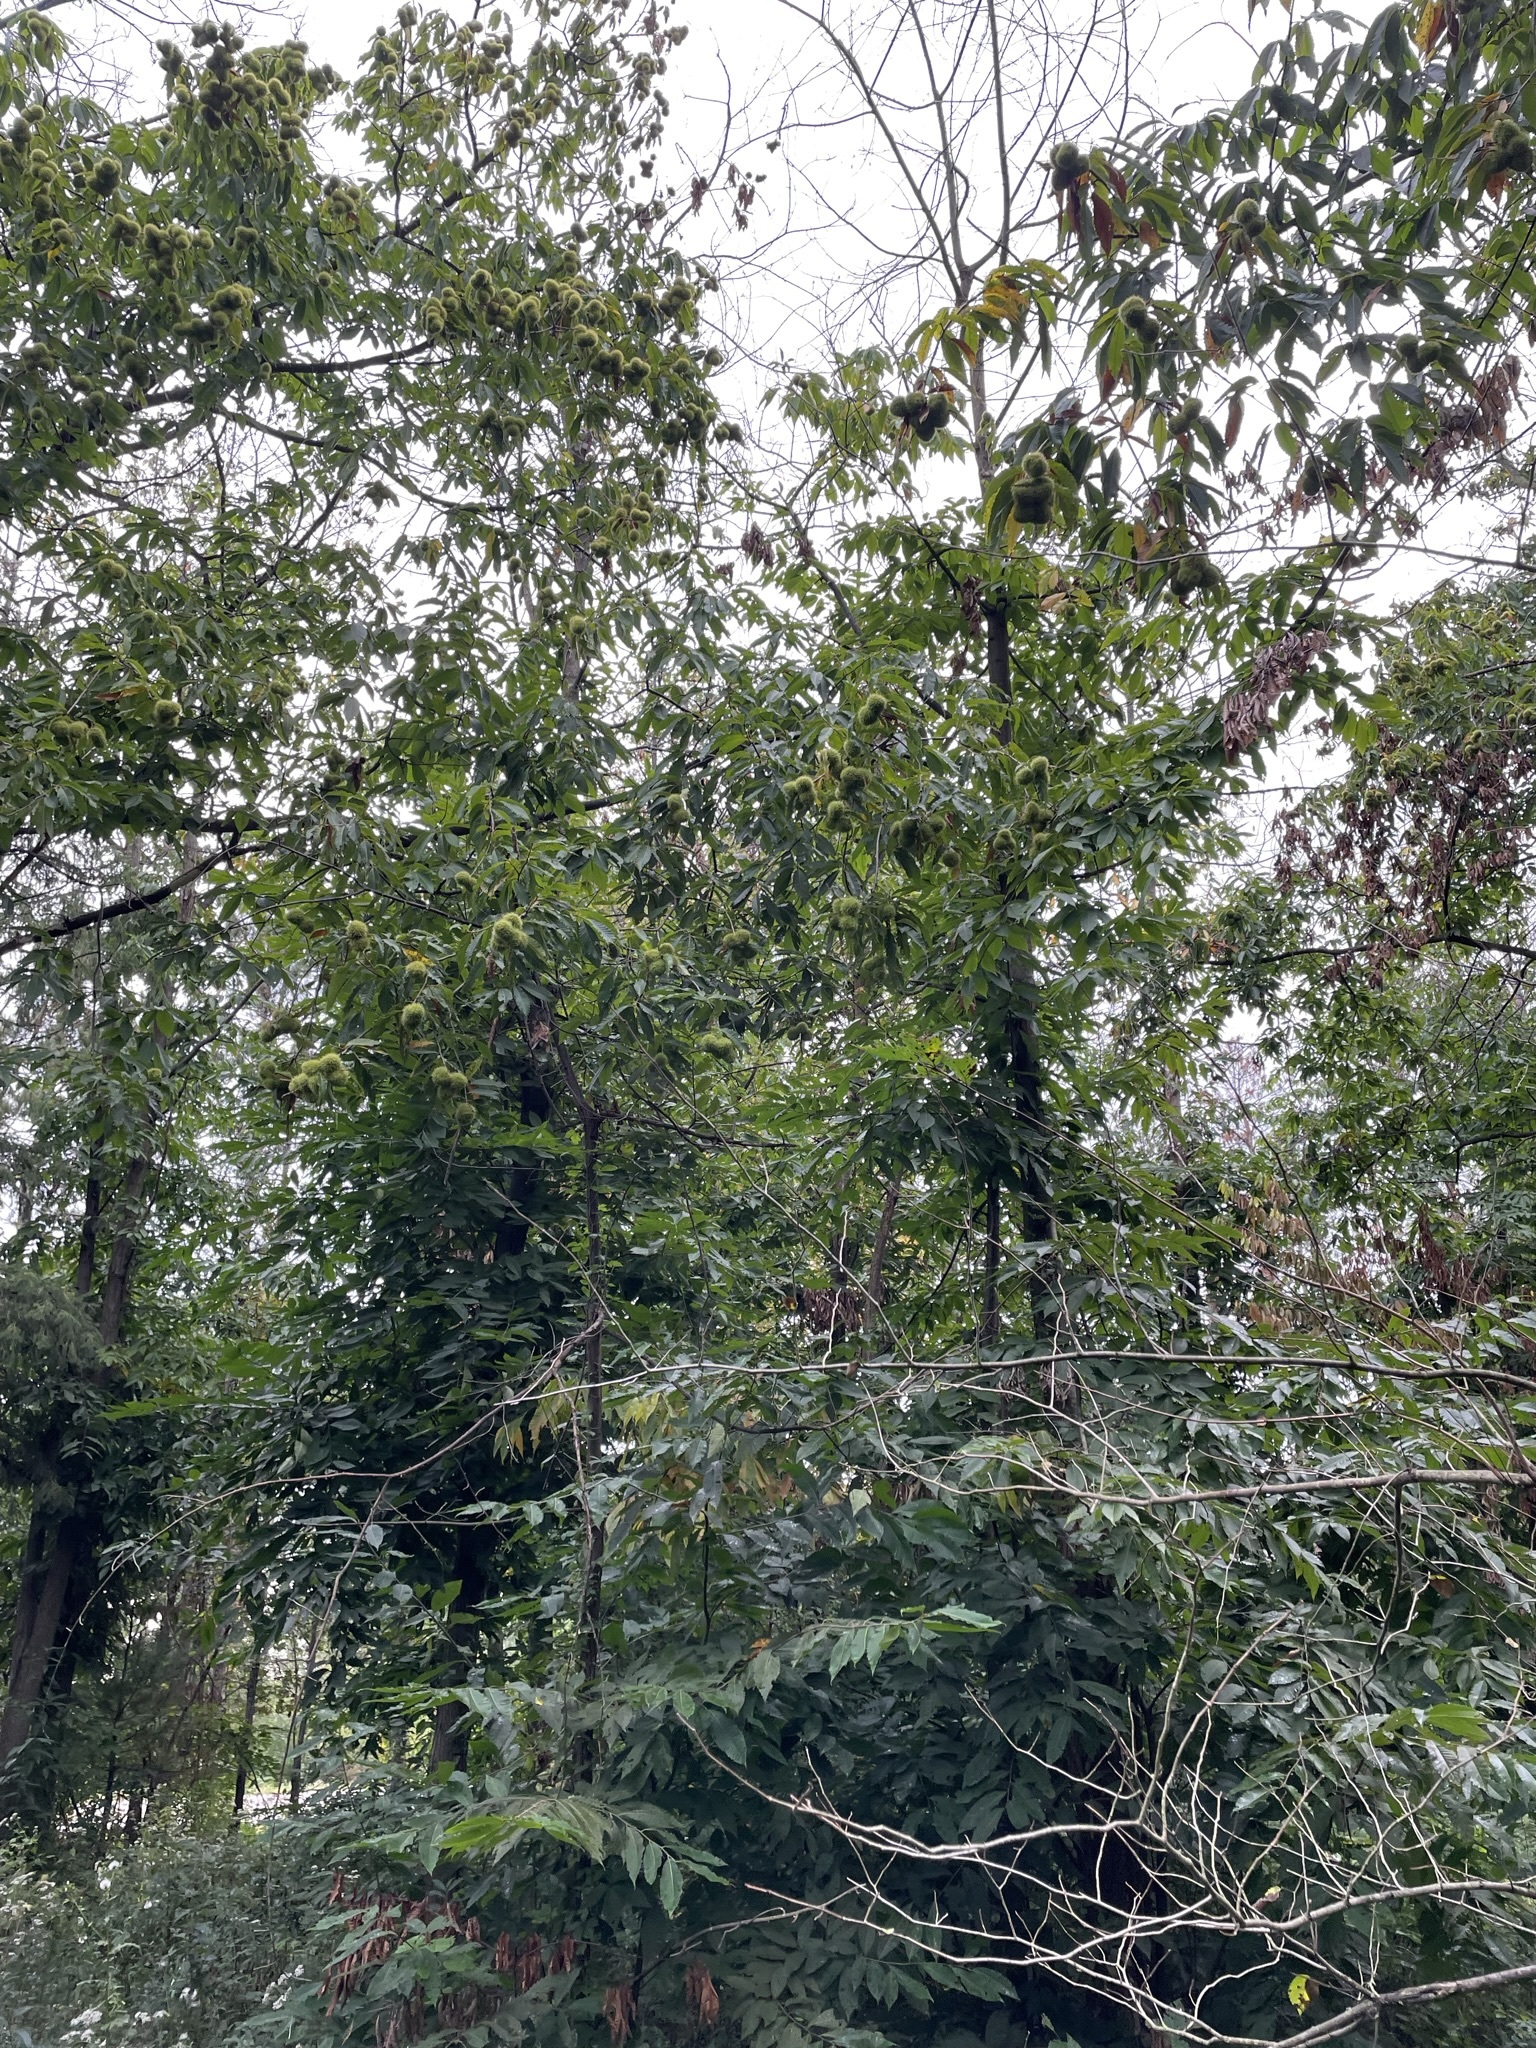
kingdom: Plantae
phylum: Tracheophyta
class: Magnoliopsida
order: Fagales
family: Fagaceae
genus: Castanea
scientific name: Castanea dentata
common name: American chestnut
